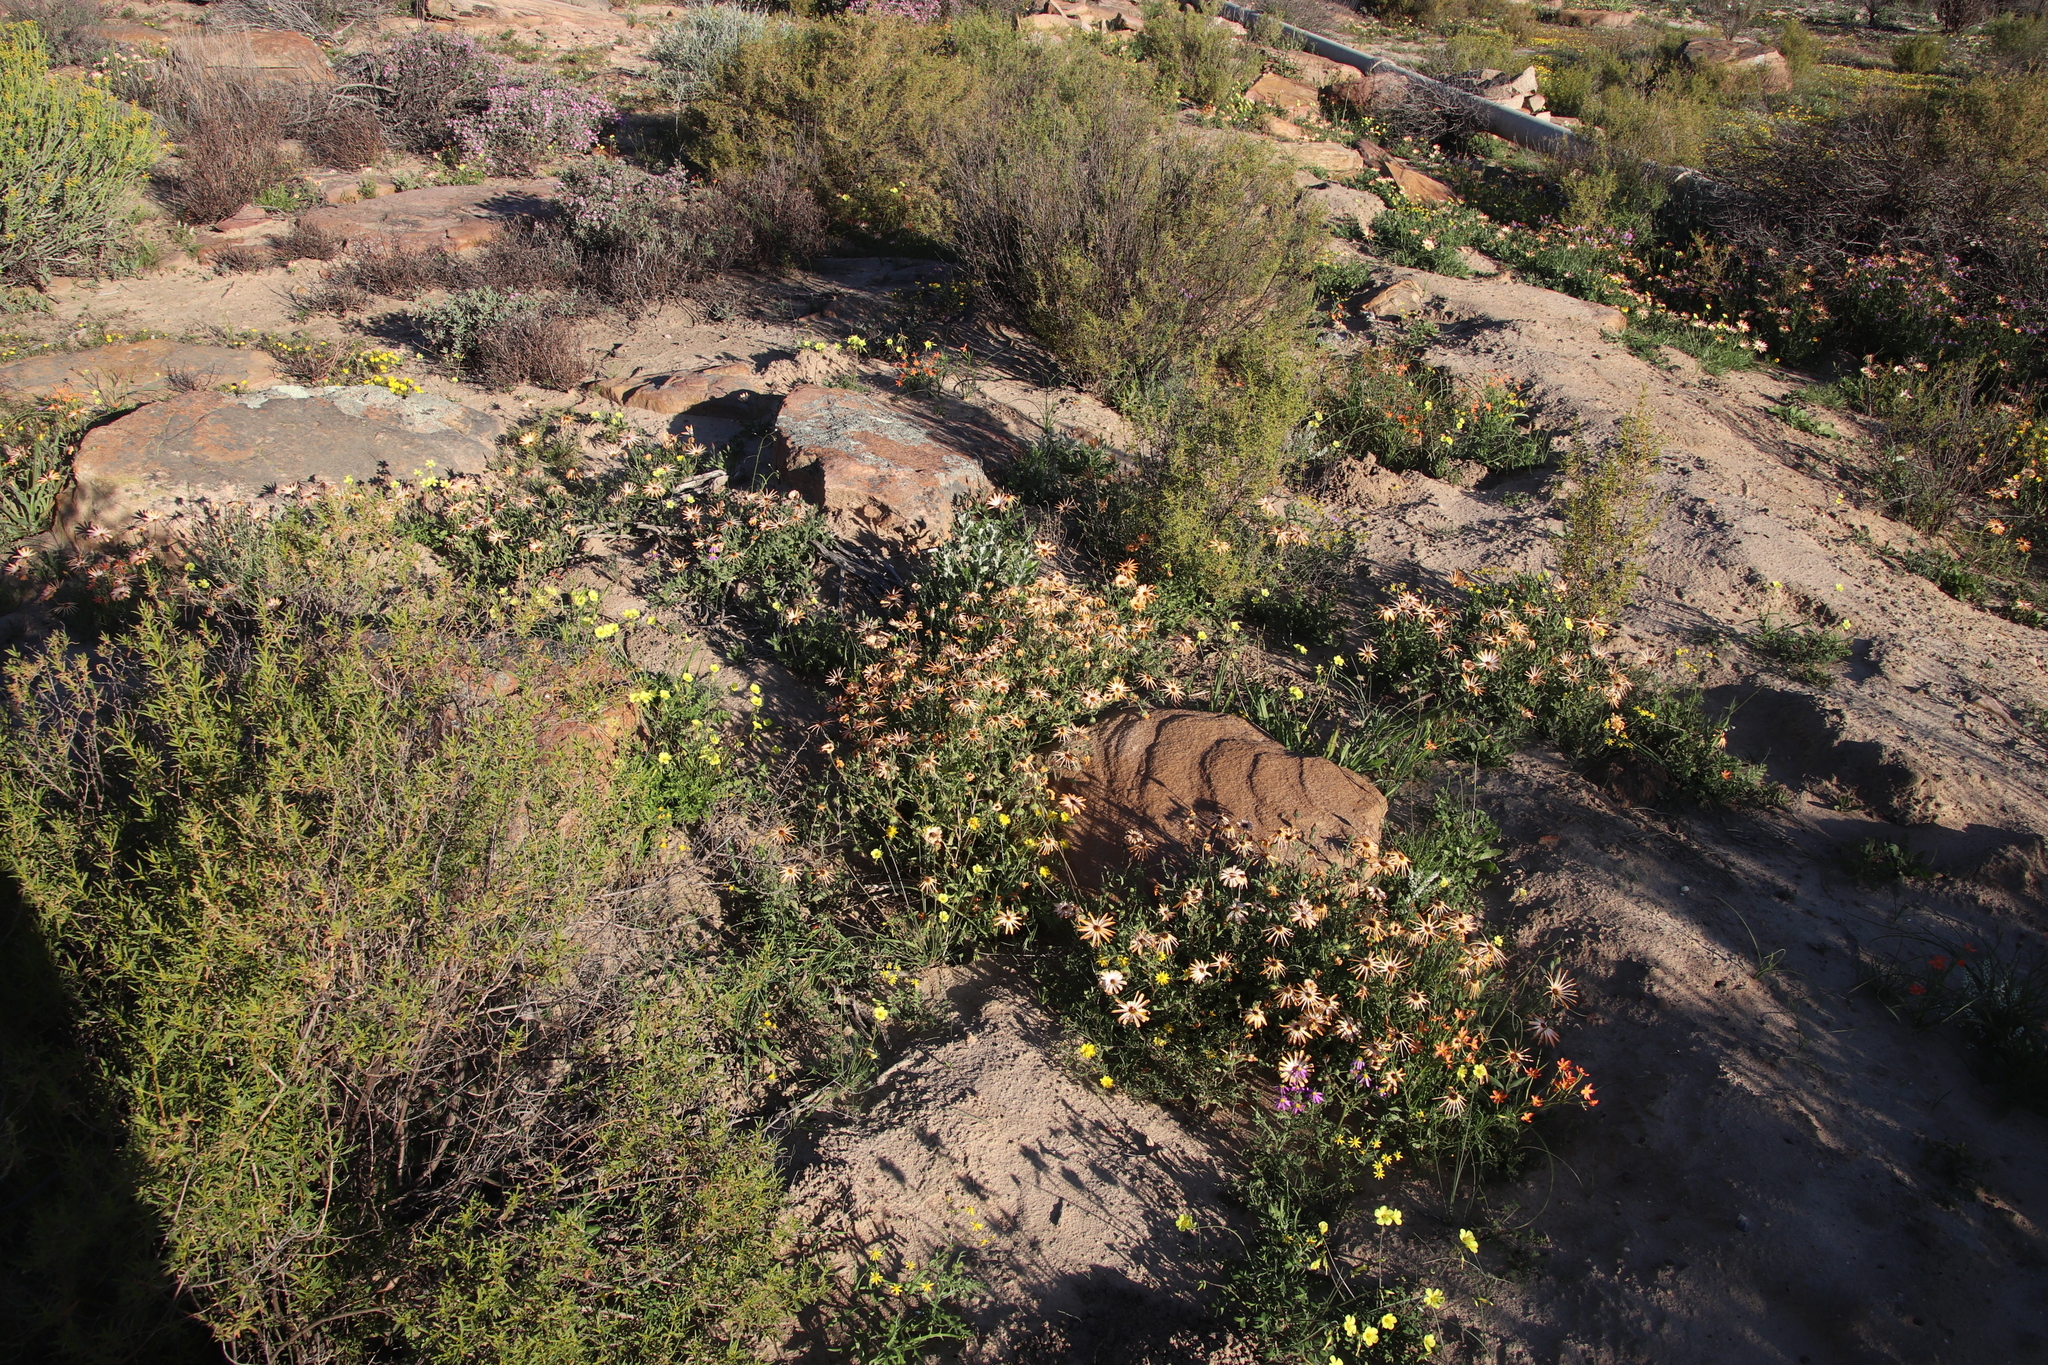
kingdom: Plantae
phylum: Tracheophyta
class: Magnoliopsida
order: Asterales
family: Asteraceae
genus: Dimorphotheca
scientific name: Dimorphotheca sinuata
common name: Glandular cape marigold
